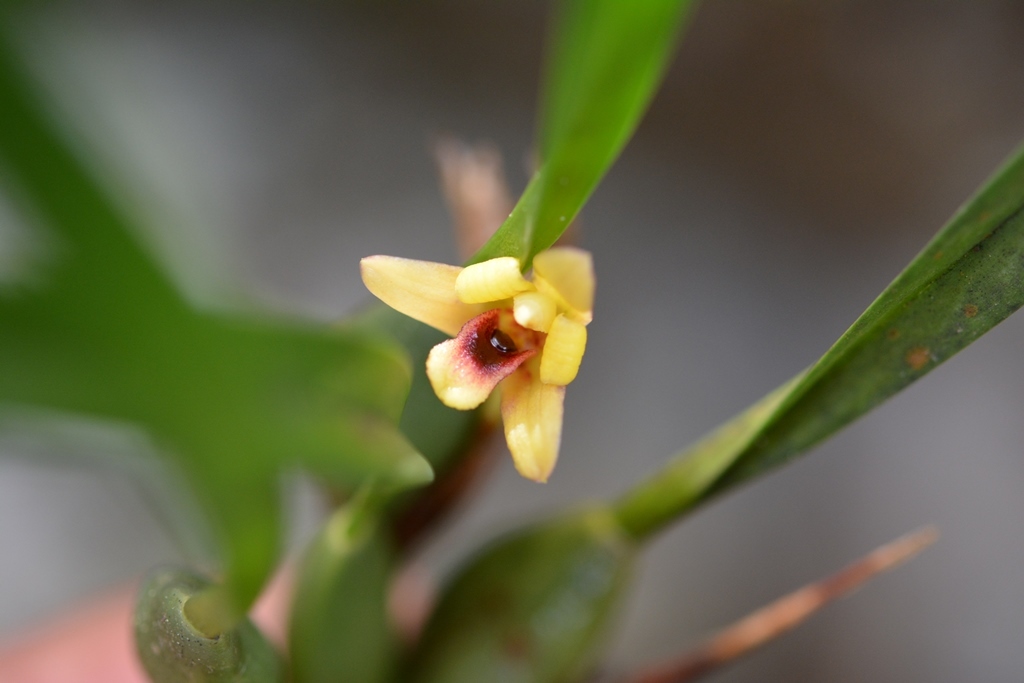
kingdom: Plantae
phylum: Tracheophyta
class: Liliopsida
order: Asparagales
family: Orchidaceae
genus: Maxillaria
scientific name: Maxillaria variabilis
